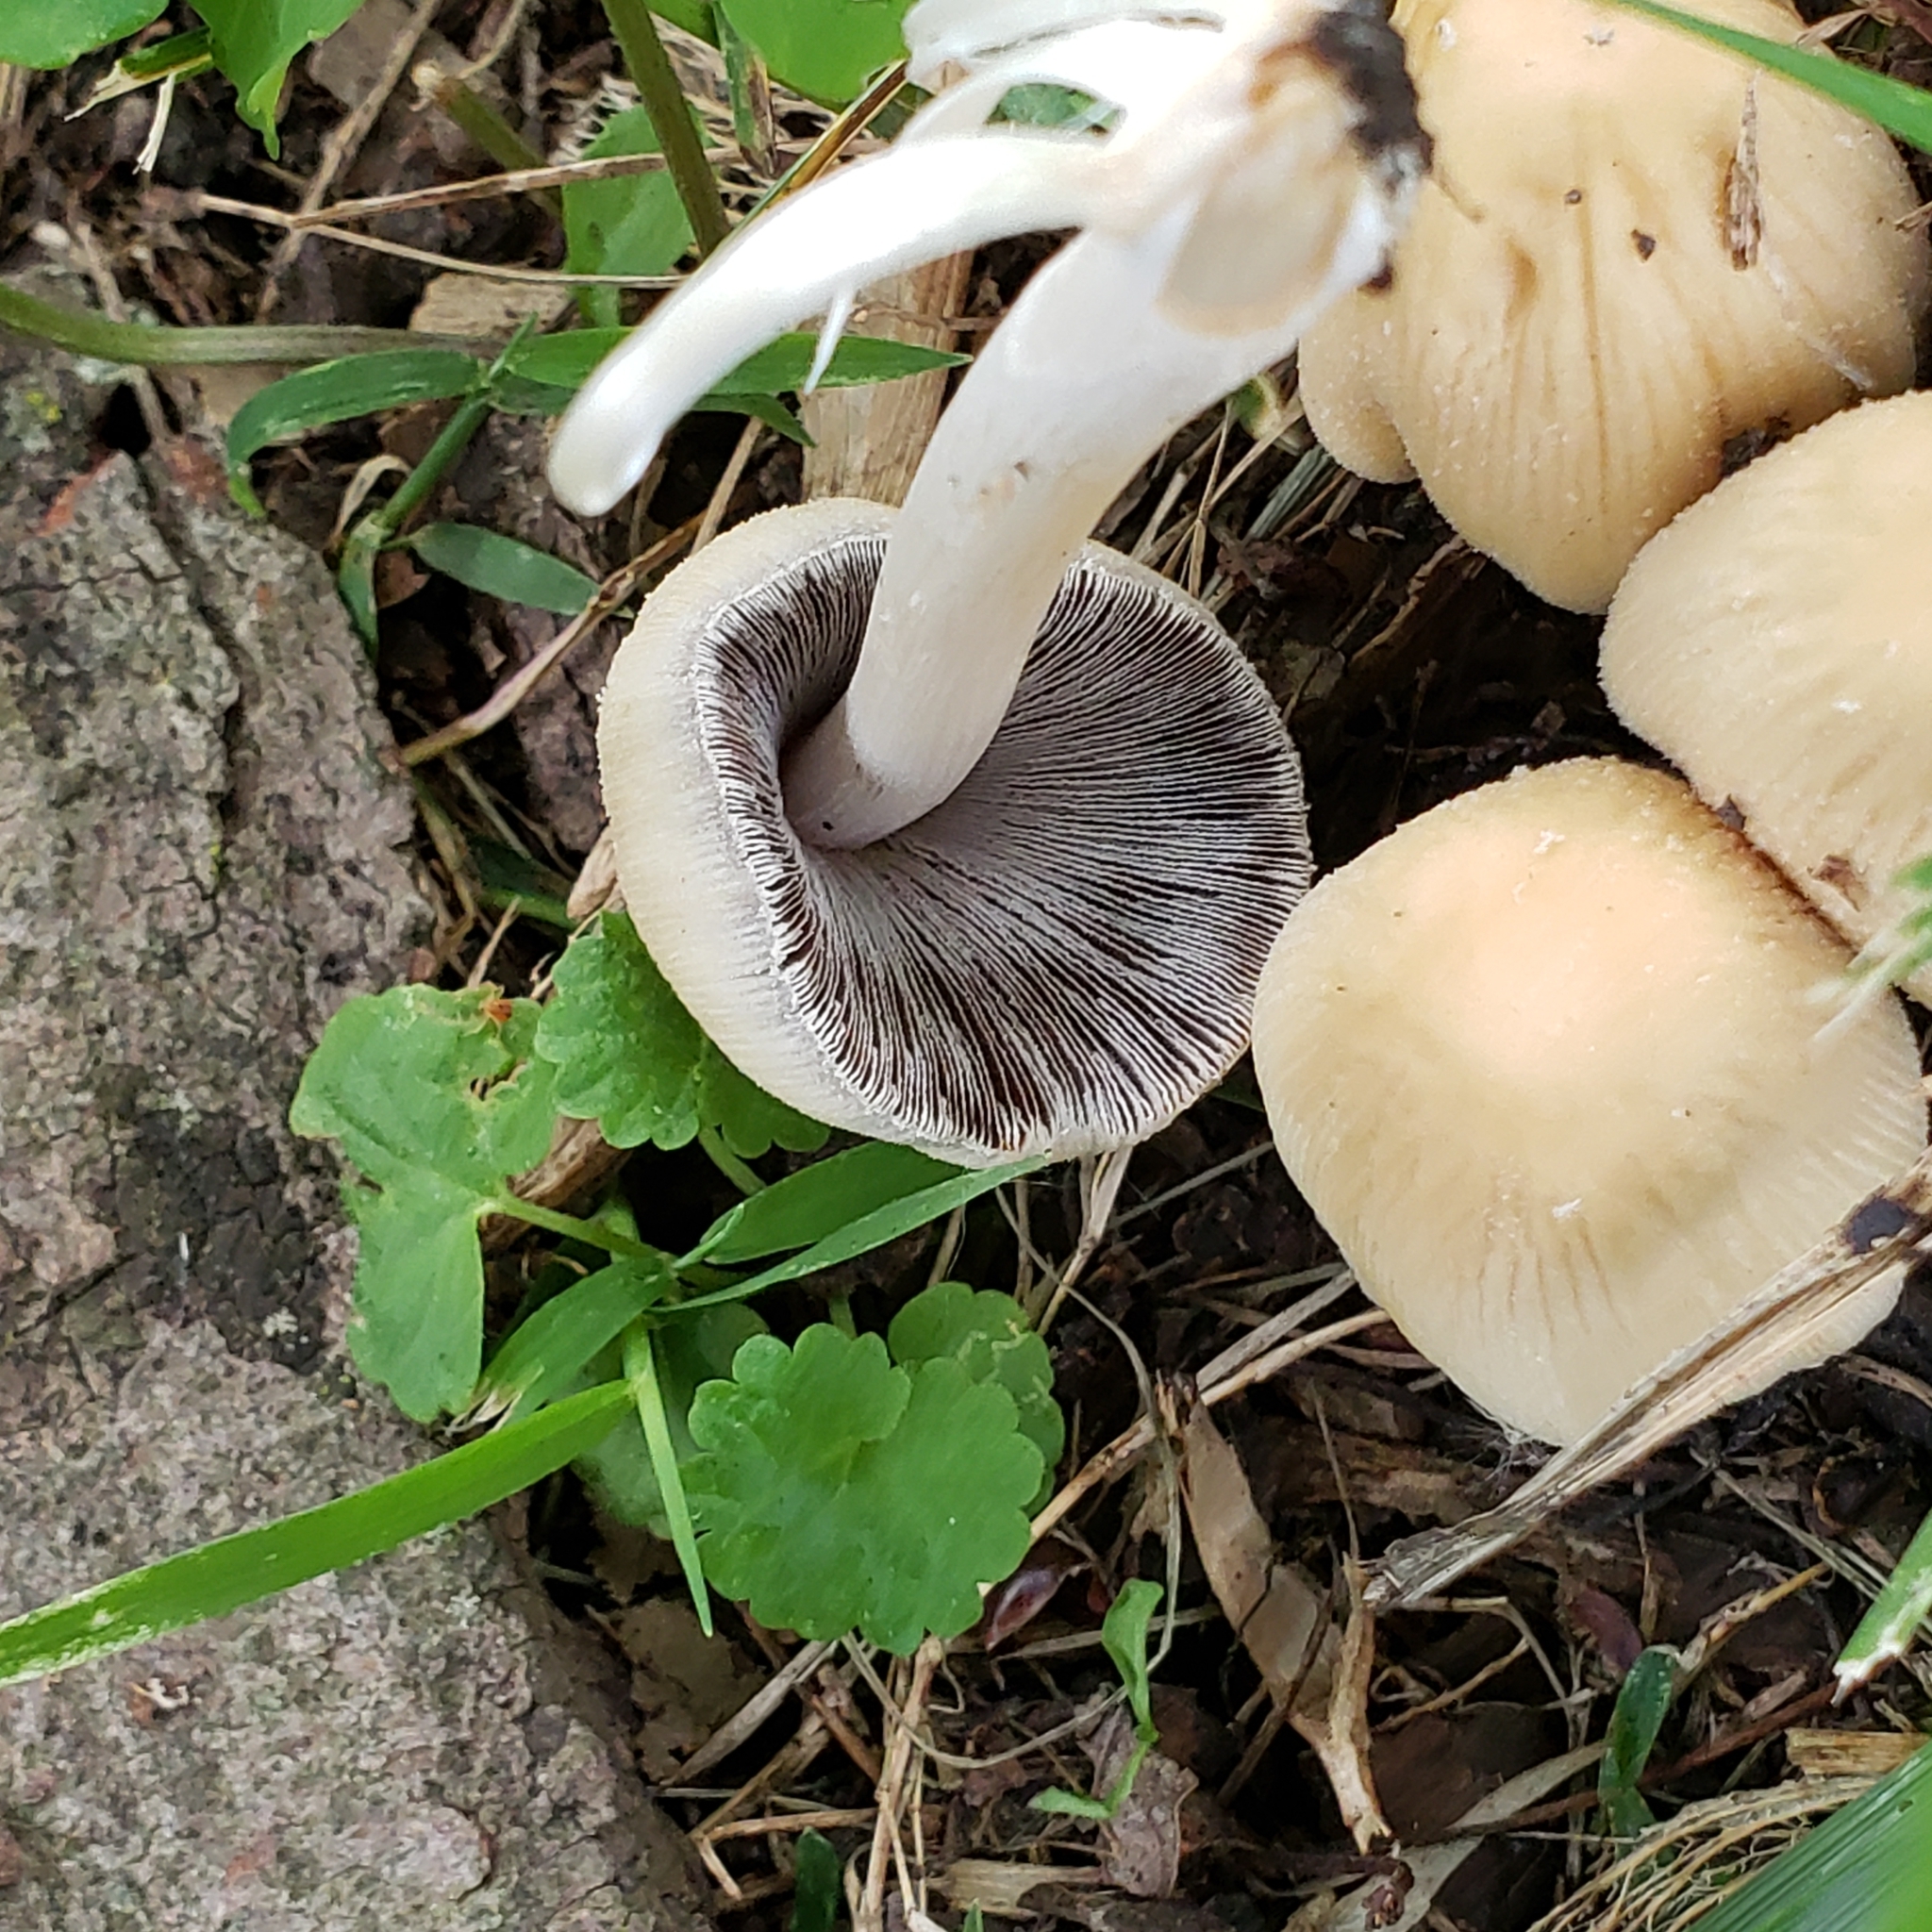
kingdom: Fungi
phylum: Basidiomycota
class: Agaricomycetes
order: Agaricales
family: Psathyrellaceae
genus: Coprinellus
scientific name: Coprinellus micaceus
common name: Glistening ink-cap
